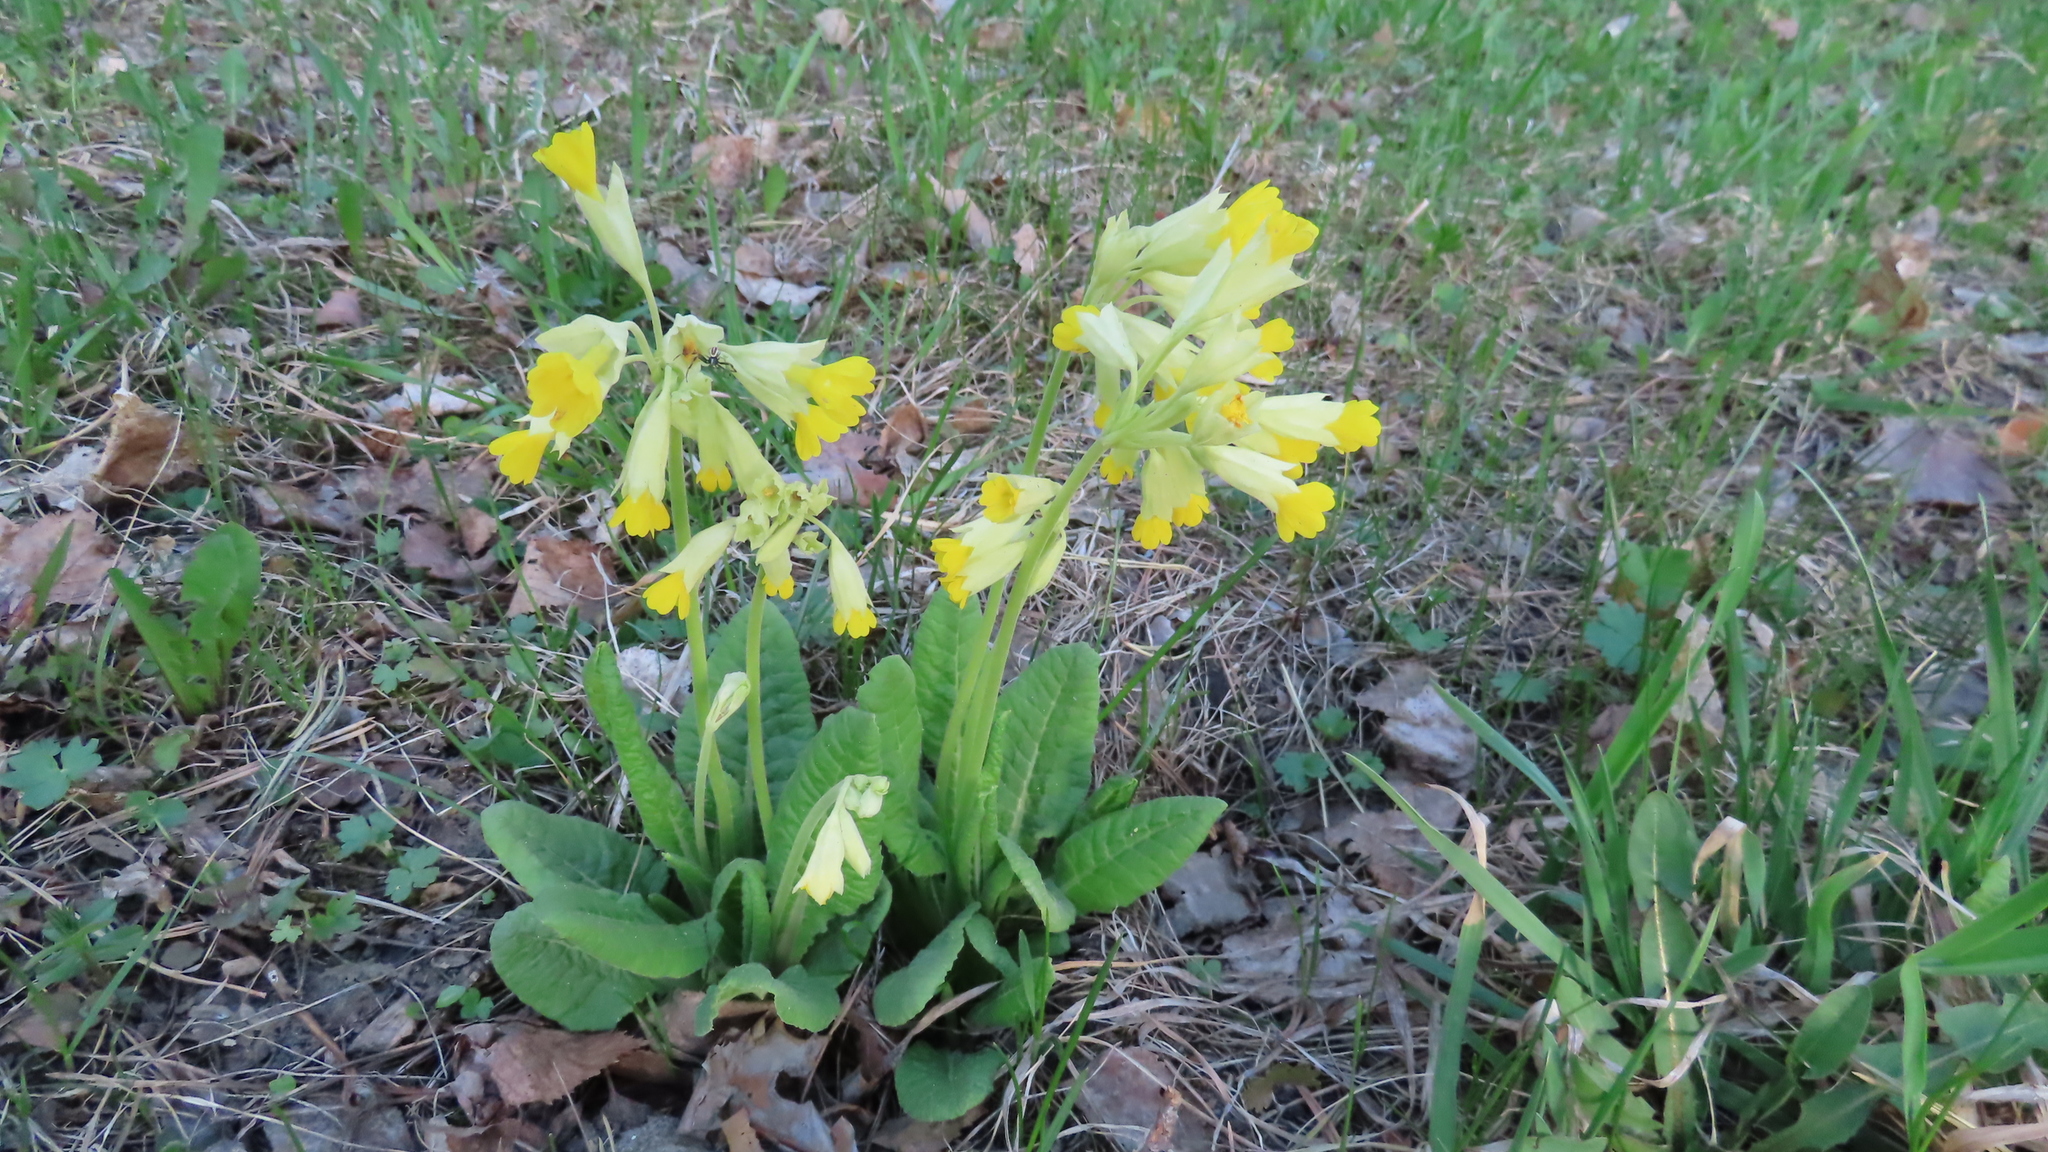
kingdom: Plantae
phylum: Tracheophyta
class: Magnoliopsida
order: Ericales
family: Primulaceae
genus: Primula
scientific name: Primula veris
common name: Cowslip
